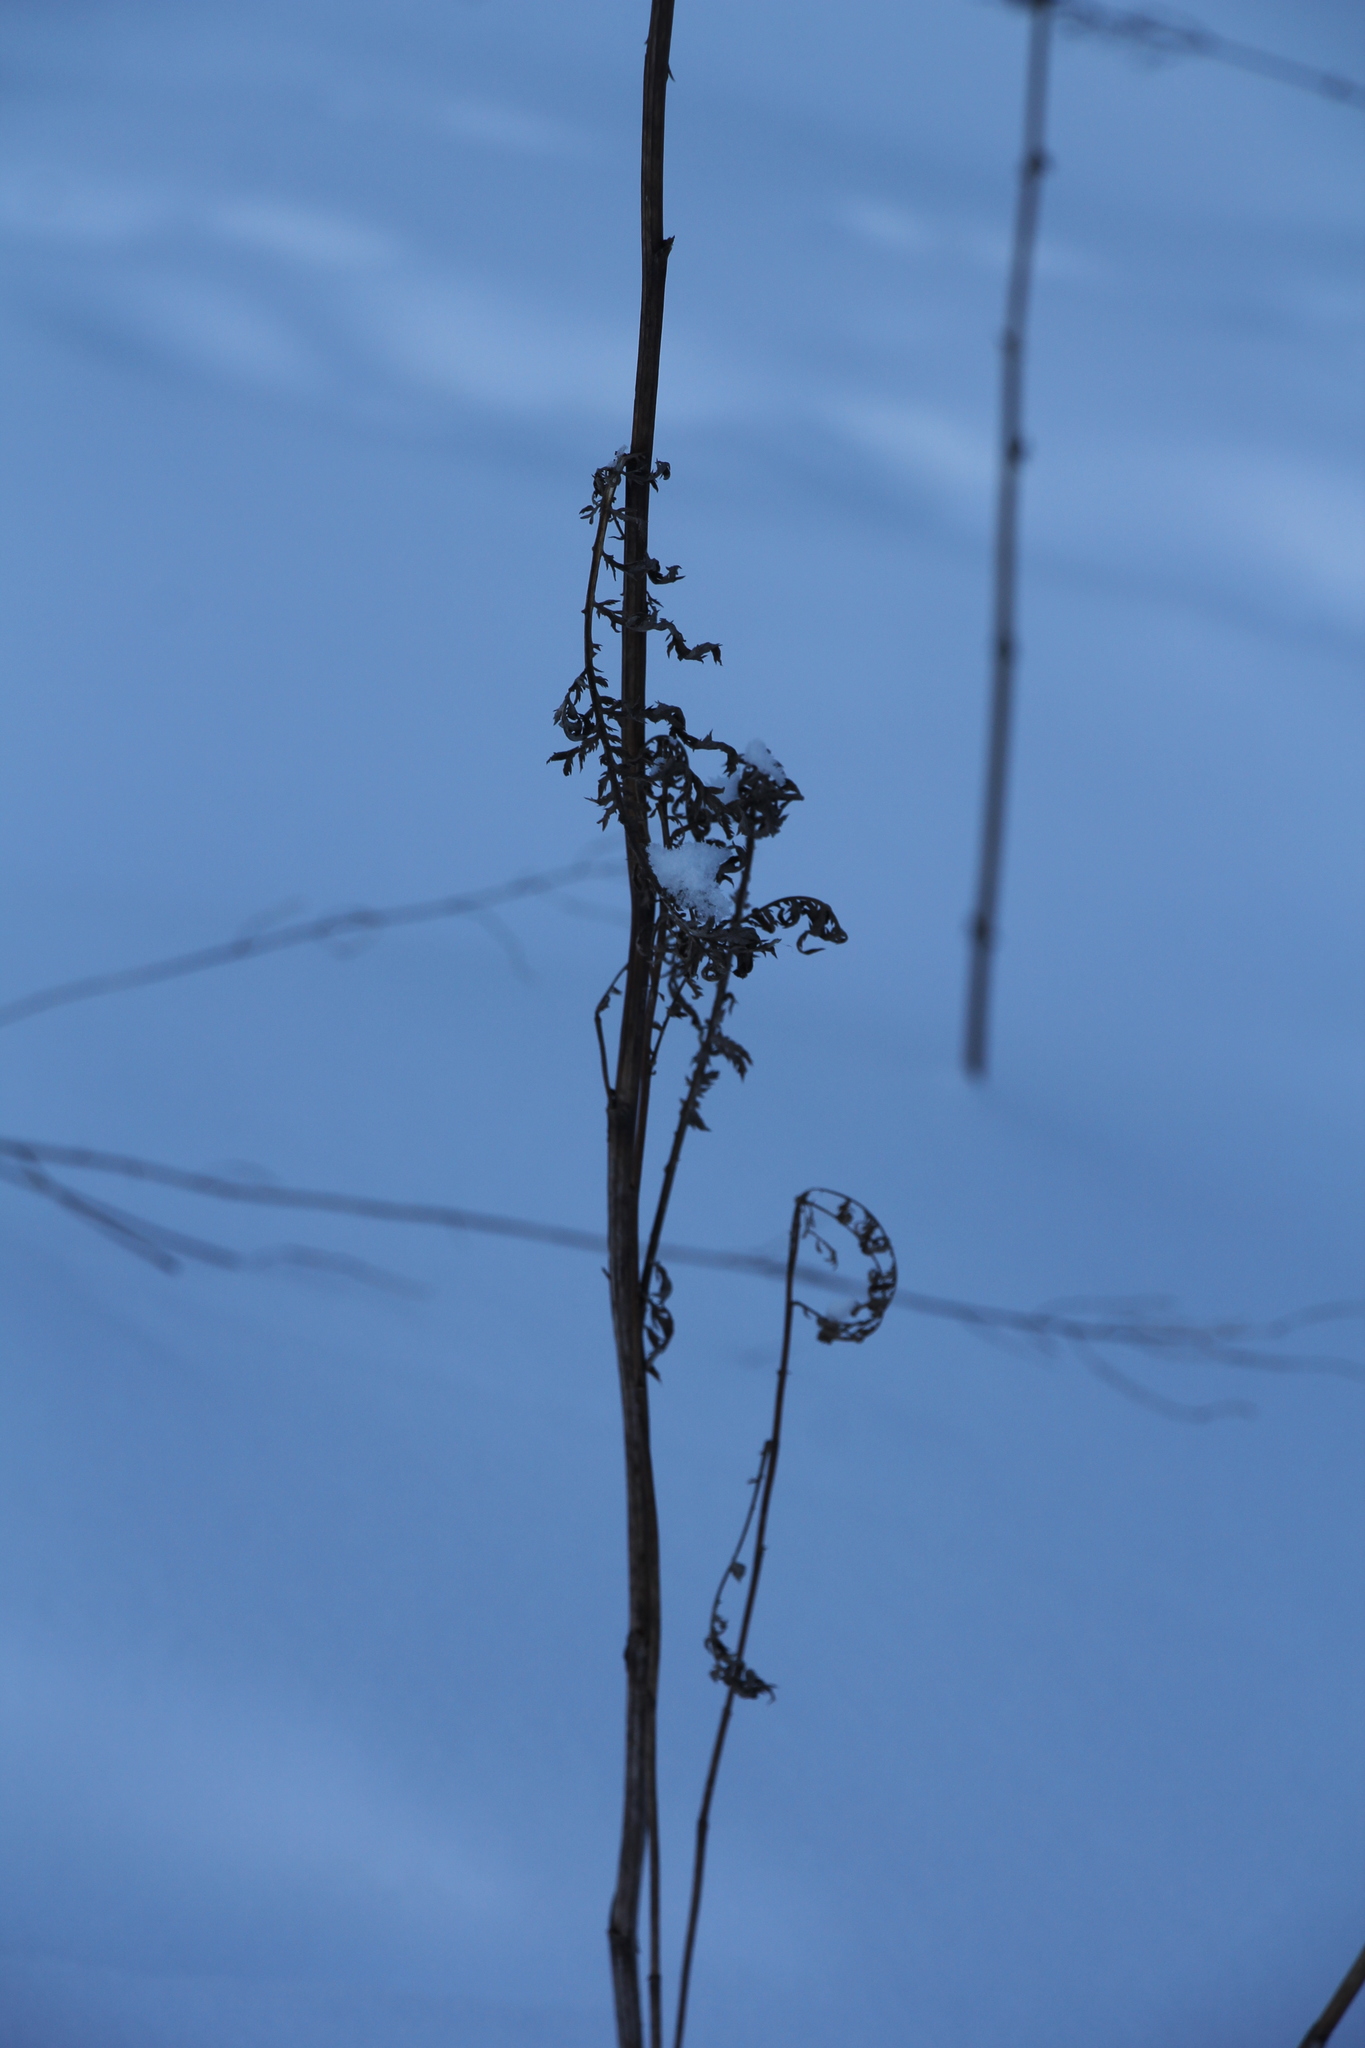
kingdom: Plantae
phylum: Tracheophyta
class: Magnoliopsida
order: Asterales
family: Asteraceae
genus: Tanacetum
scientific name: Tanacetum vulgare
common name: Common tansy
